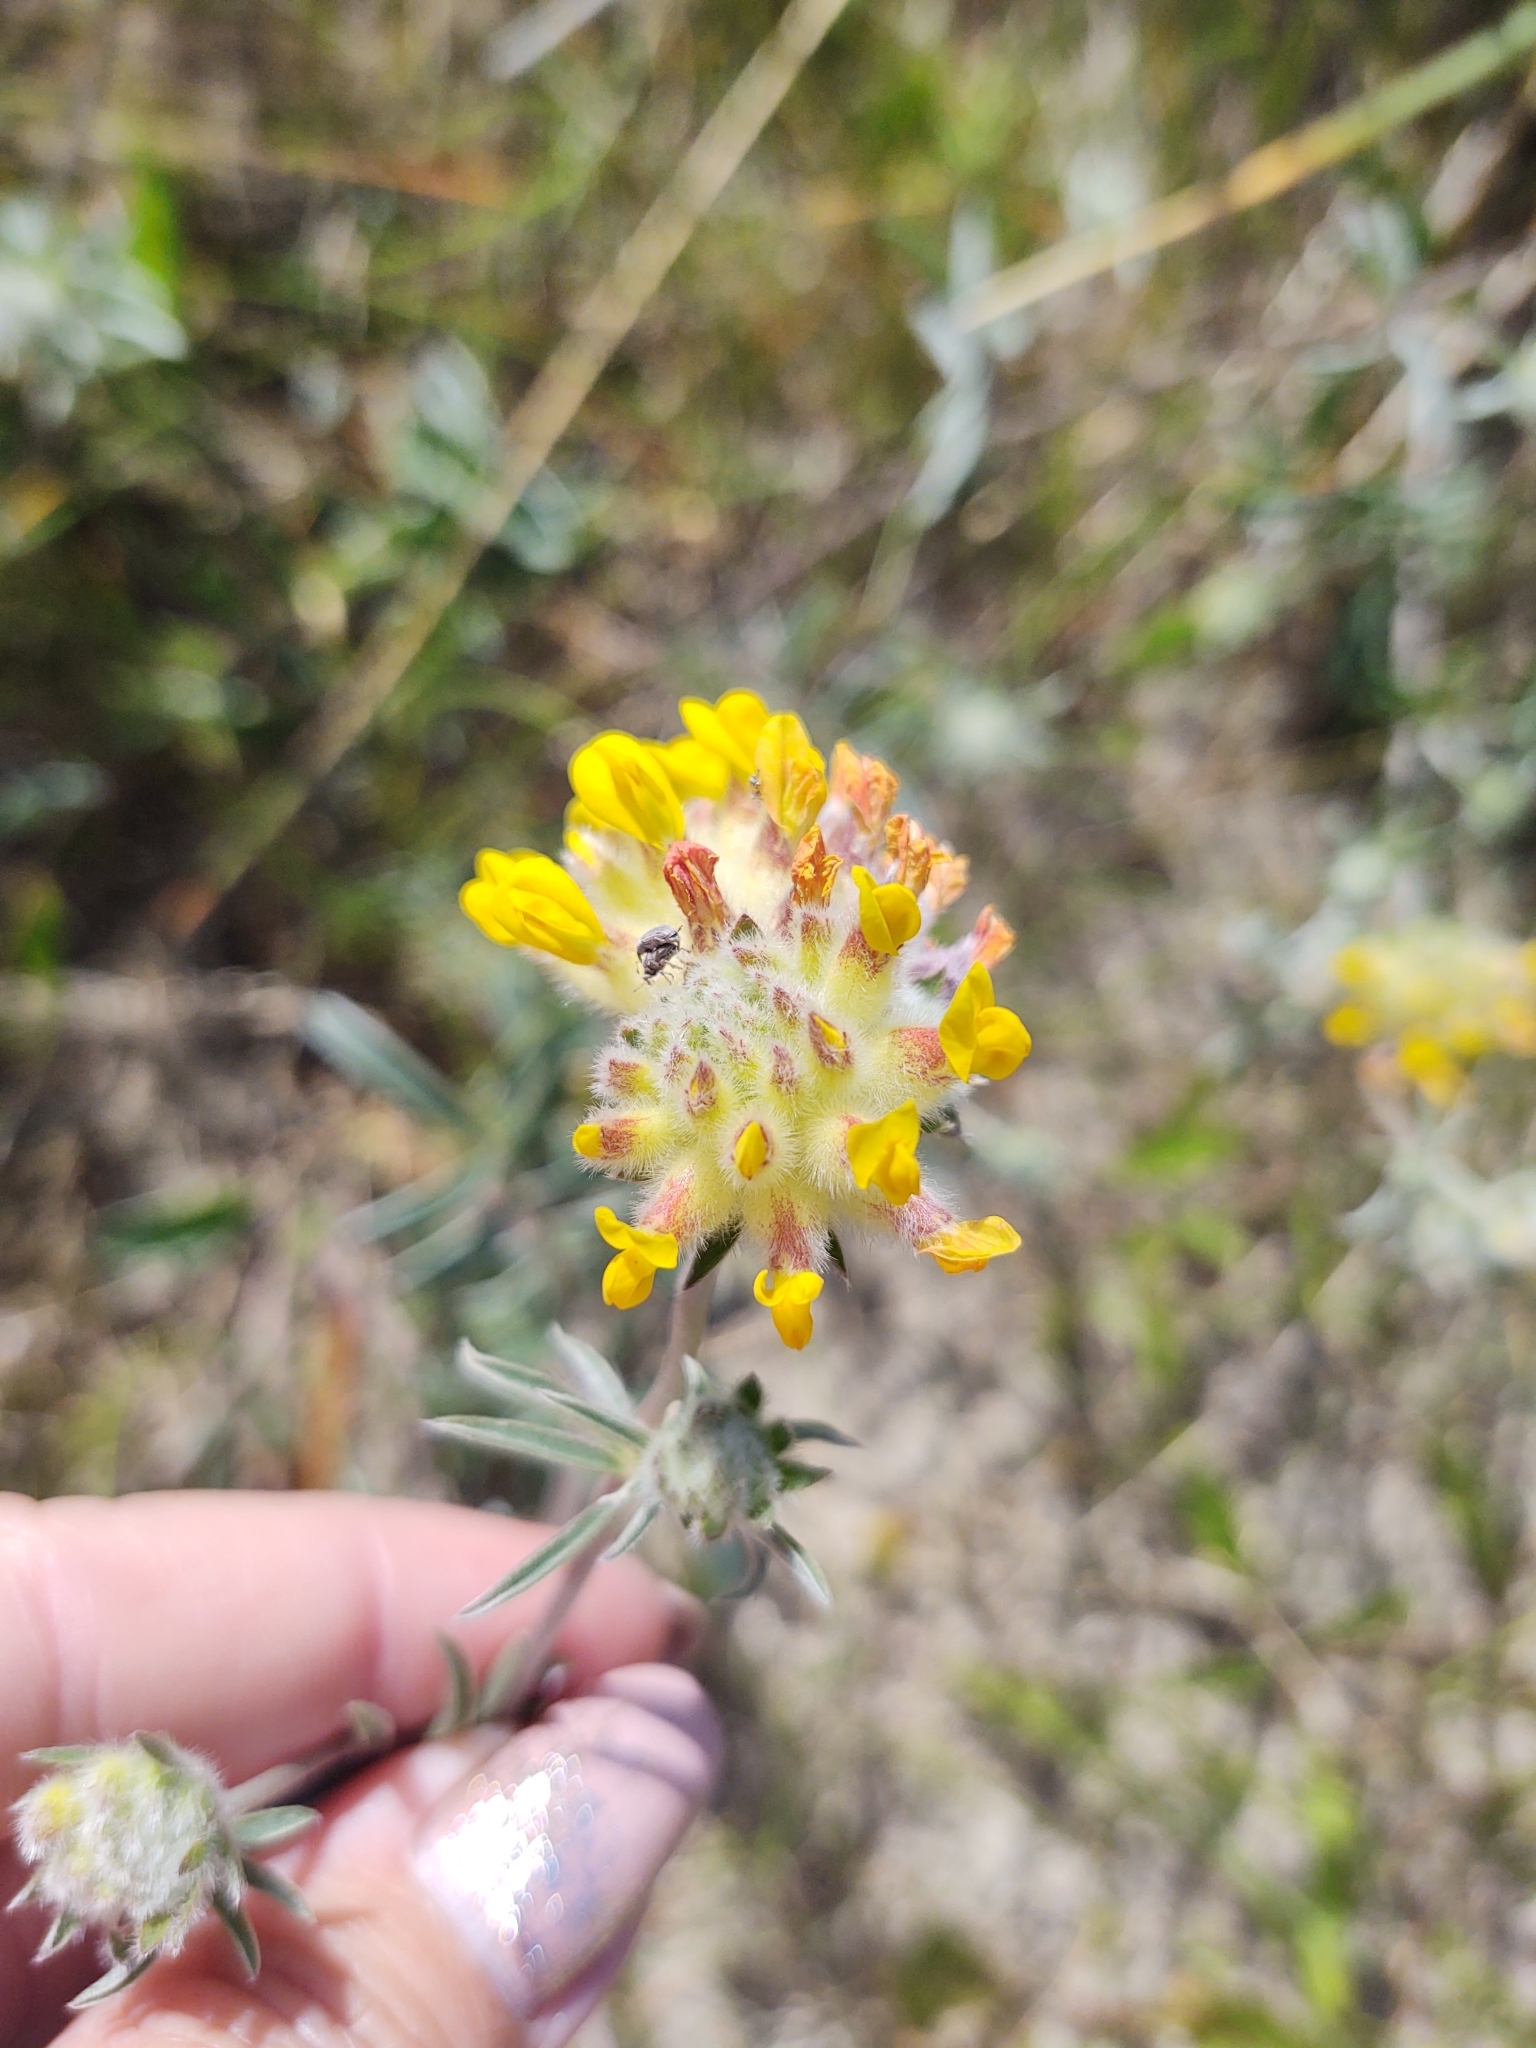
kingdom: Plantae
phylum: Tracheophyta
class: Magnoliopsida
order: Fabales
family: Fabaceae
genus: Anthyllis
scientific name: Anthyllis vulneraria
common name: Kidney vetch
